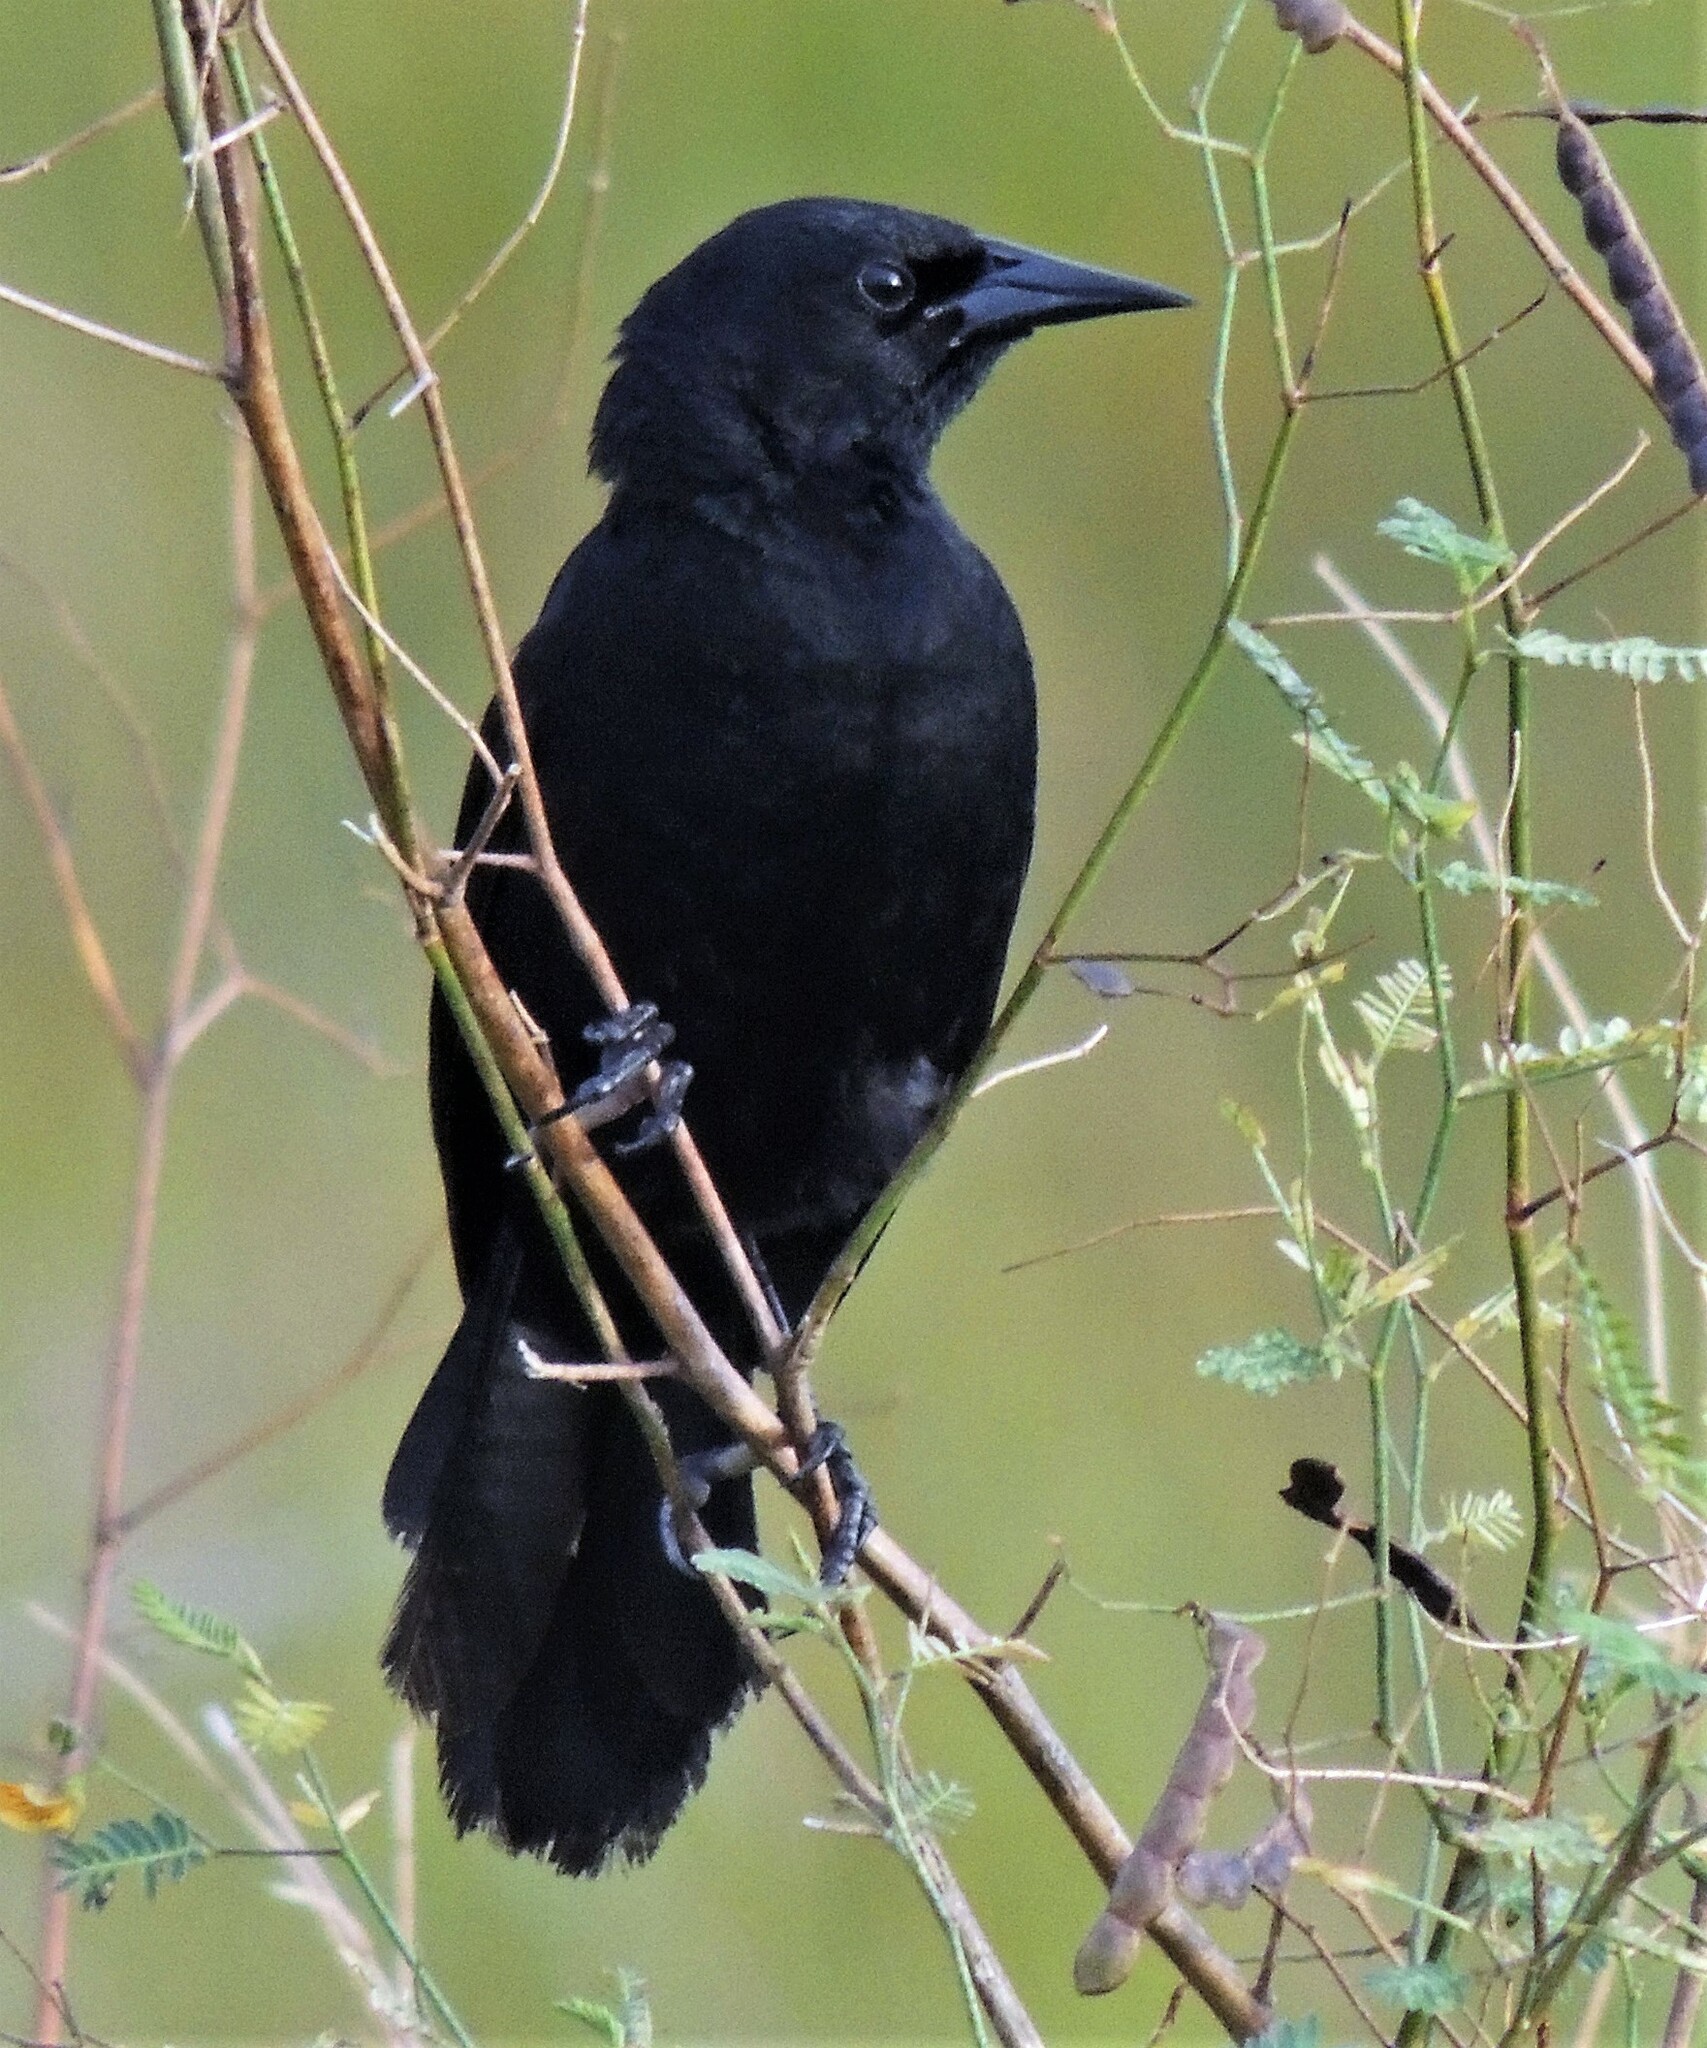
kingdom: Animalia
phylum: Chordata
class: Aves
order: Passeriformes
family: Icteridae
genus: Agelasticus
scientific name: Agelasticus cyanopus
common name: Unicolored blackbird
